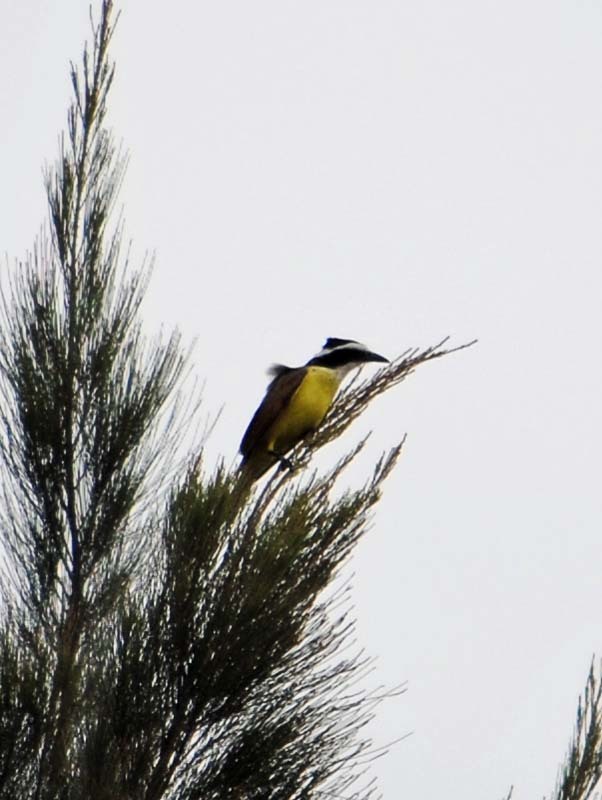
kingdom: Animalia
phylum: Chordata
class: Aves
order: Passeriformes
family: Tyrannidae
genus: Pitangus
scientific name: Pitangus sulphuratus
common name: Great kiskadee
